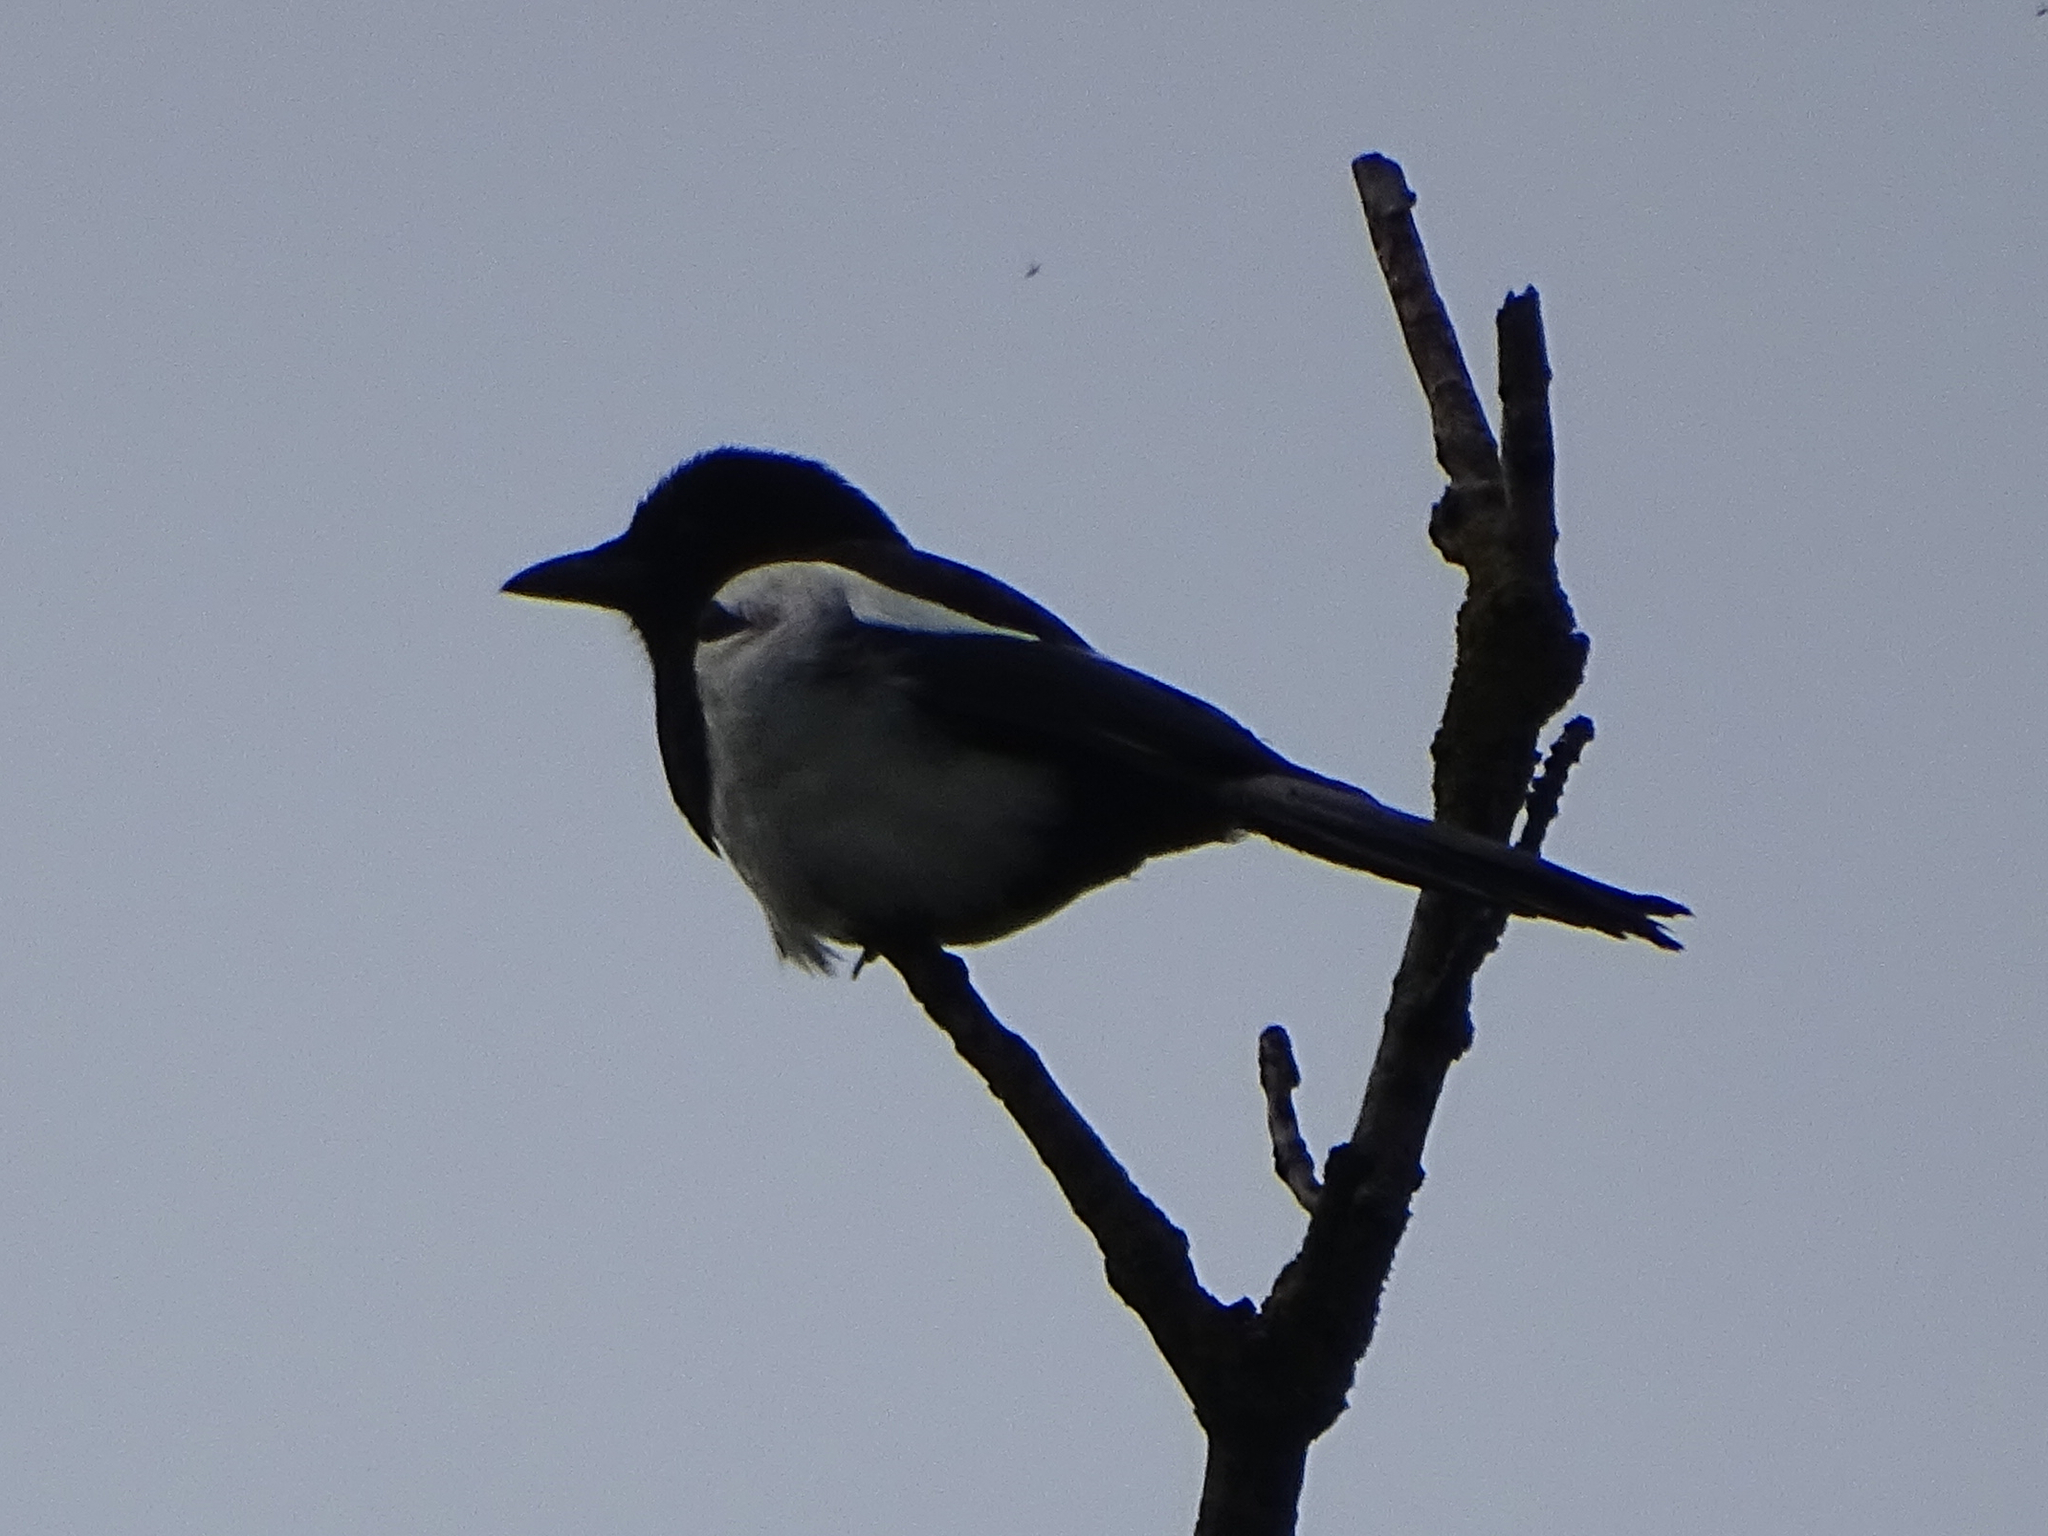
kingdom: Animalia
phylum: Chordata
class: Aves
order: Passeriformes
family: Corvidae
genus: Pica
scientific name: Pica pica
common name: Eurasian magpie
